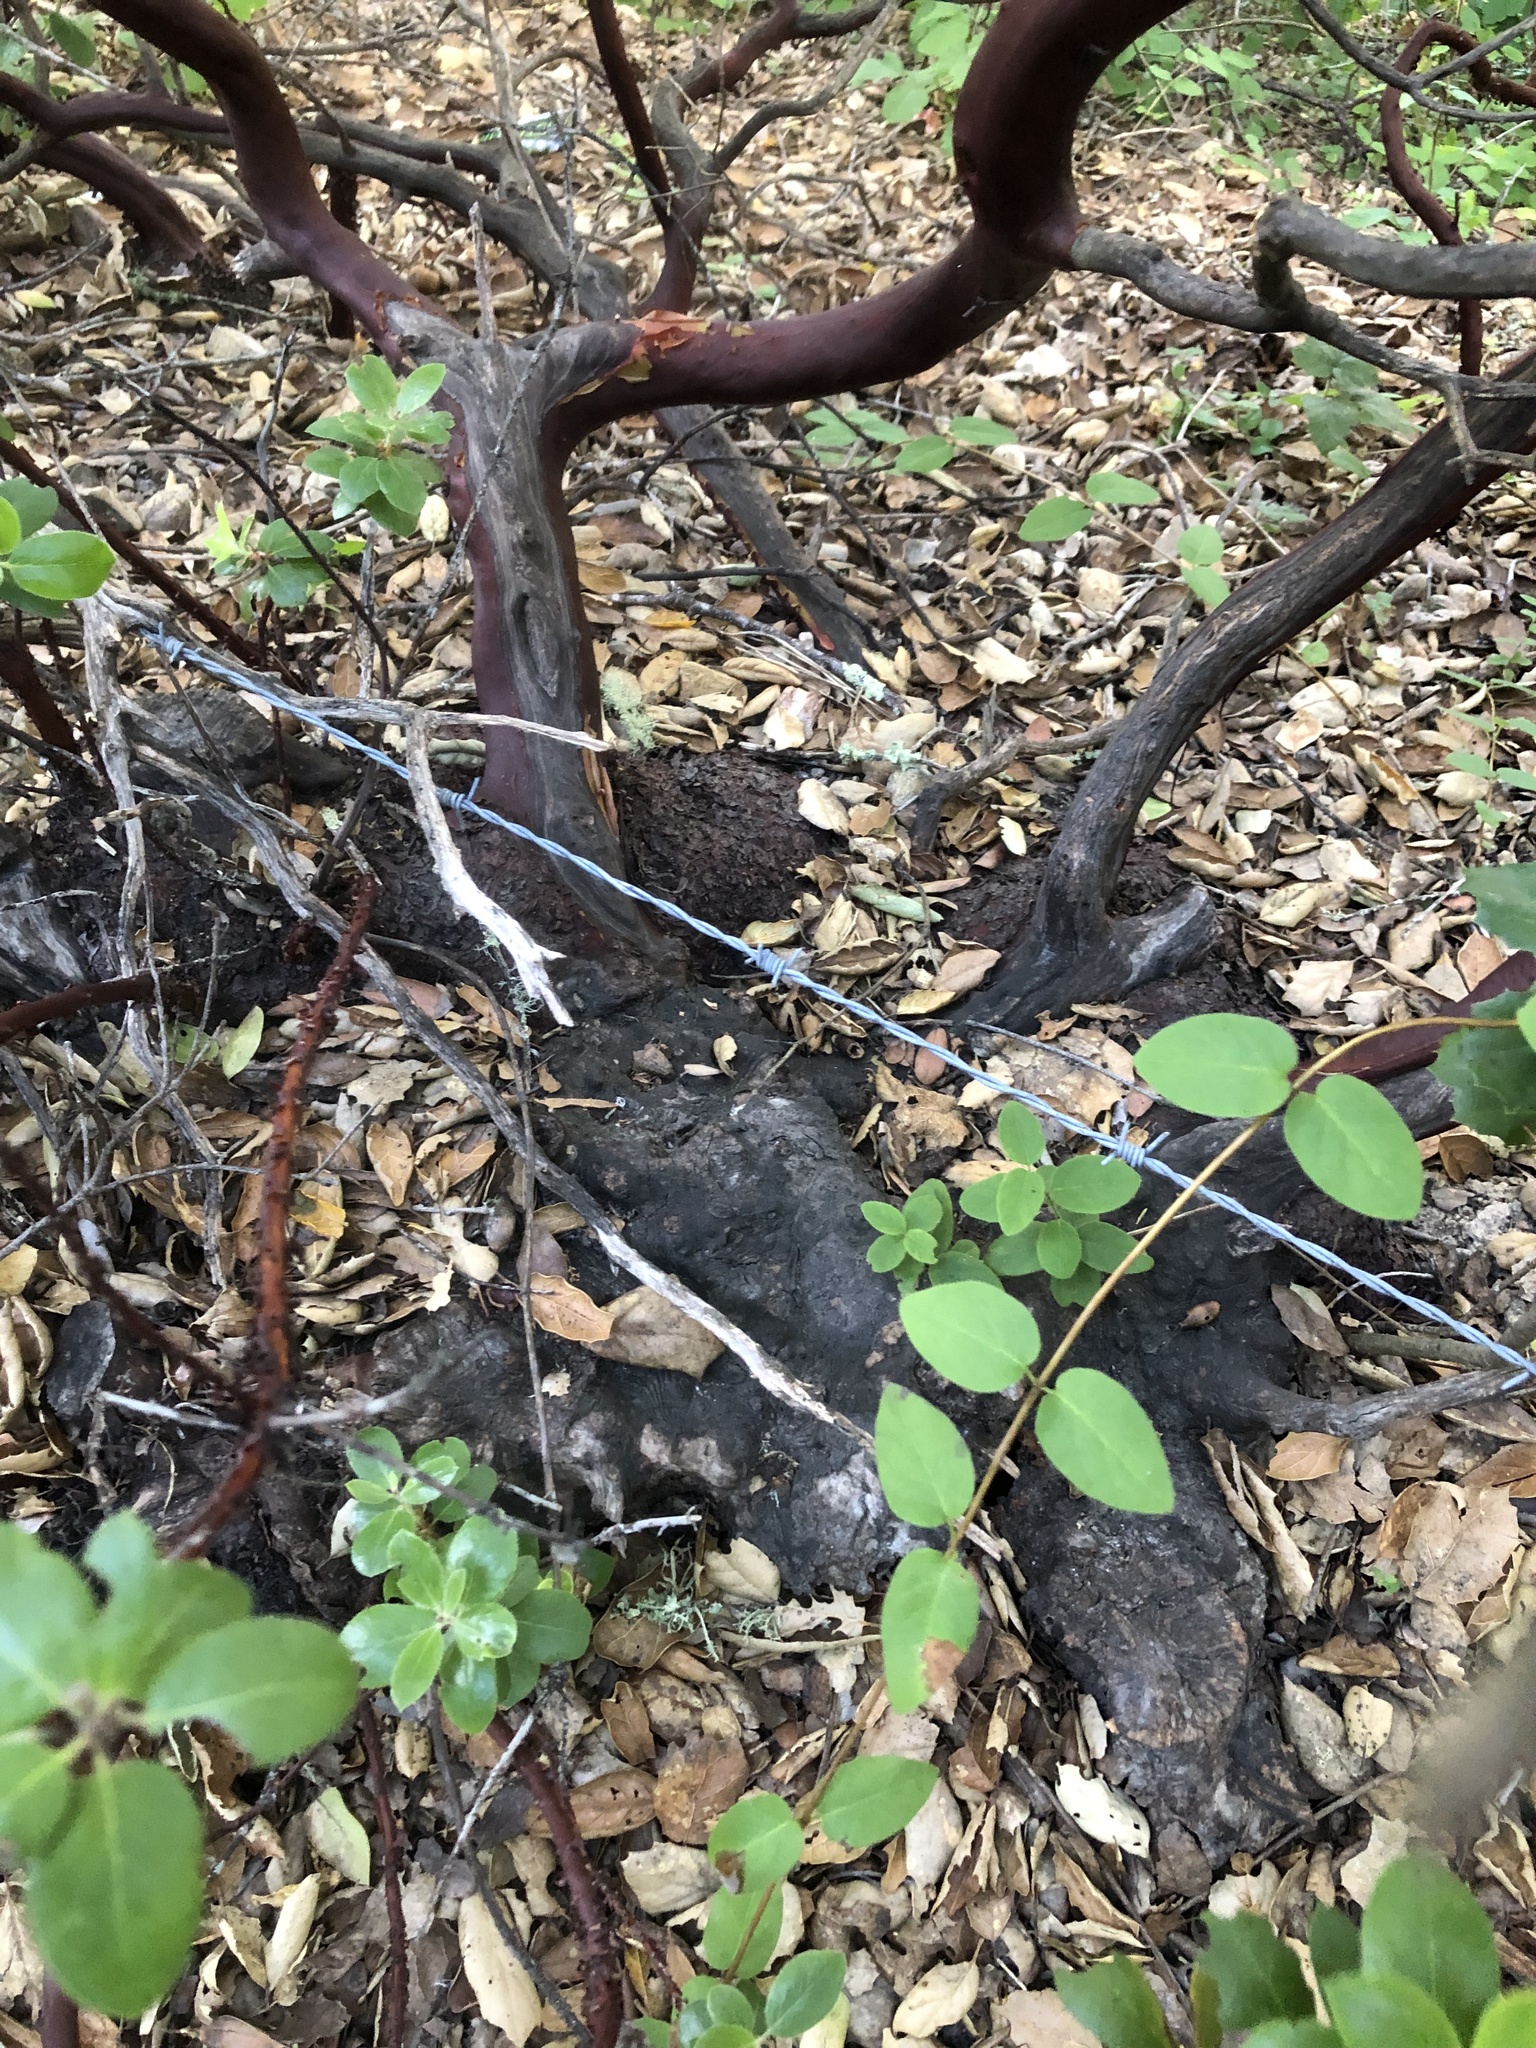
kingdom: Plantae
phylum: Tracheophyta
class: Magnoliopsida
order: Ericales
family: Ericaceae
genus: Arctostaphylos
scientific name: Arctostaphylos crustacea
